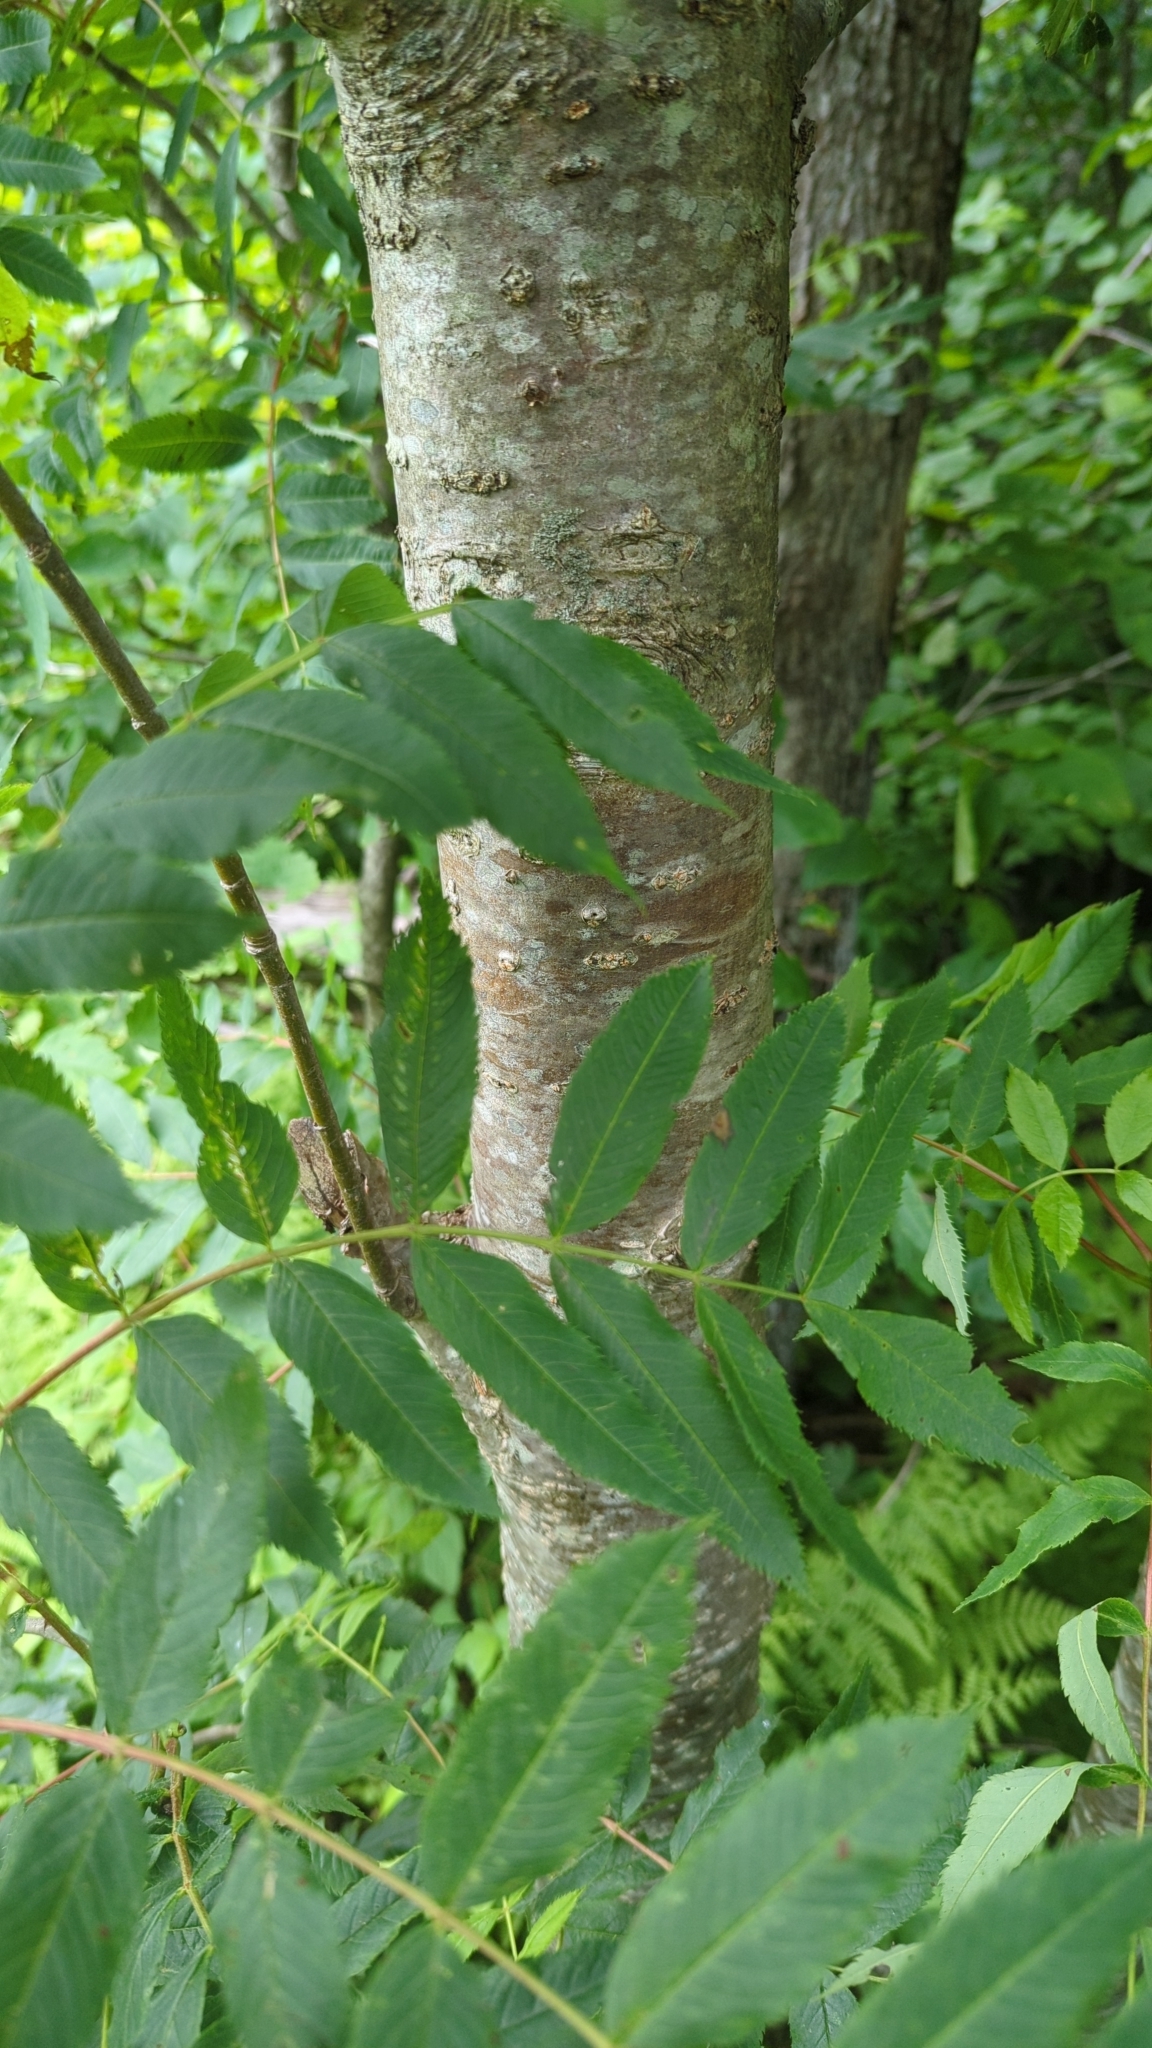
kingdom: Plantae
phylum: Tracheophyta
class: Magnoliopsida
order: Sapindales
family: Anacardiaceae
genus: Rhus
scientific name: Rhus glabra
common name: Scarlet sumac
